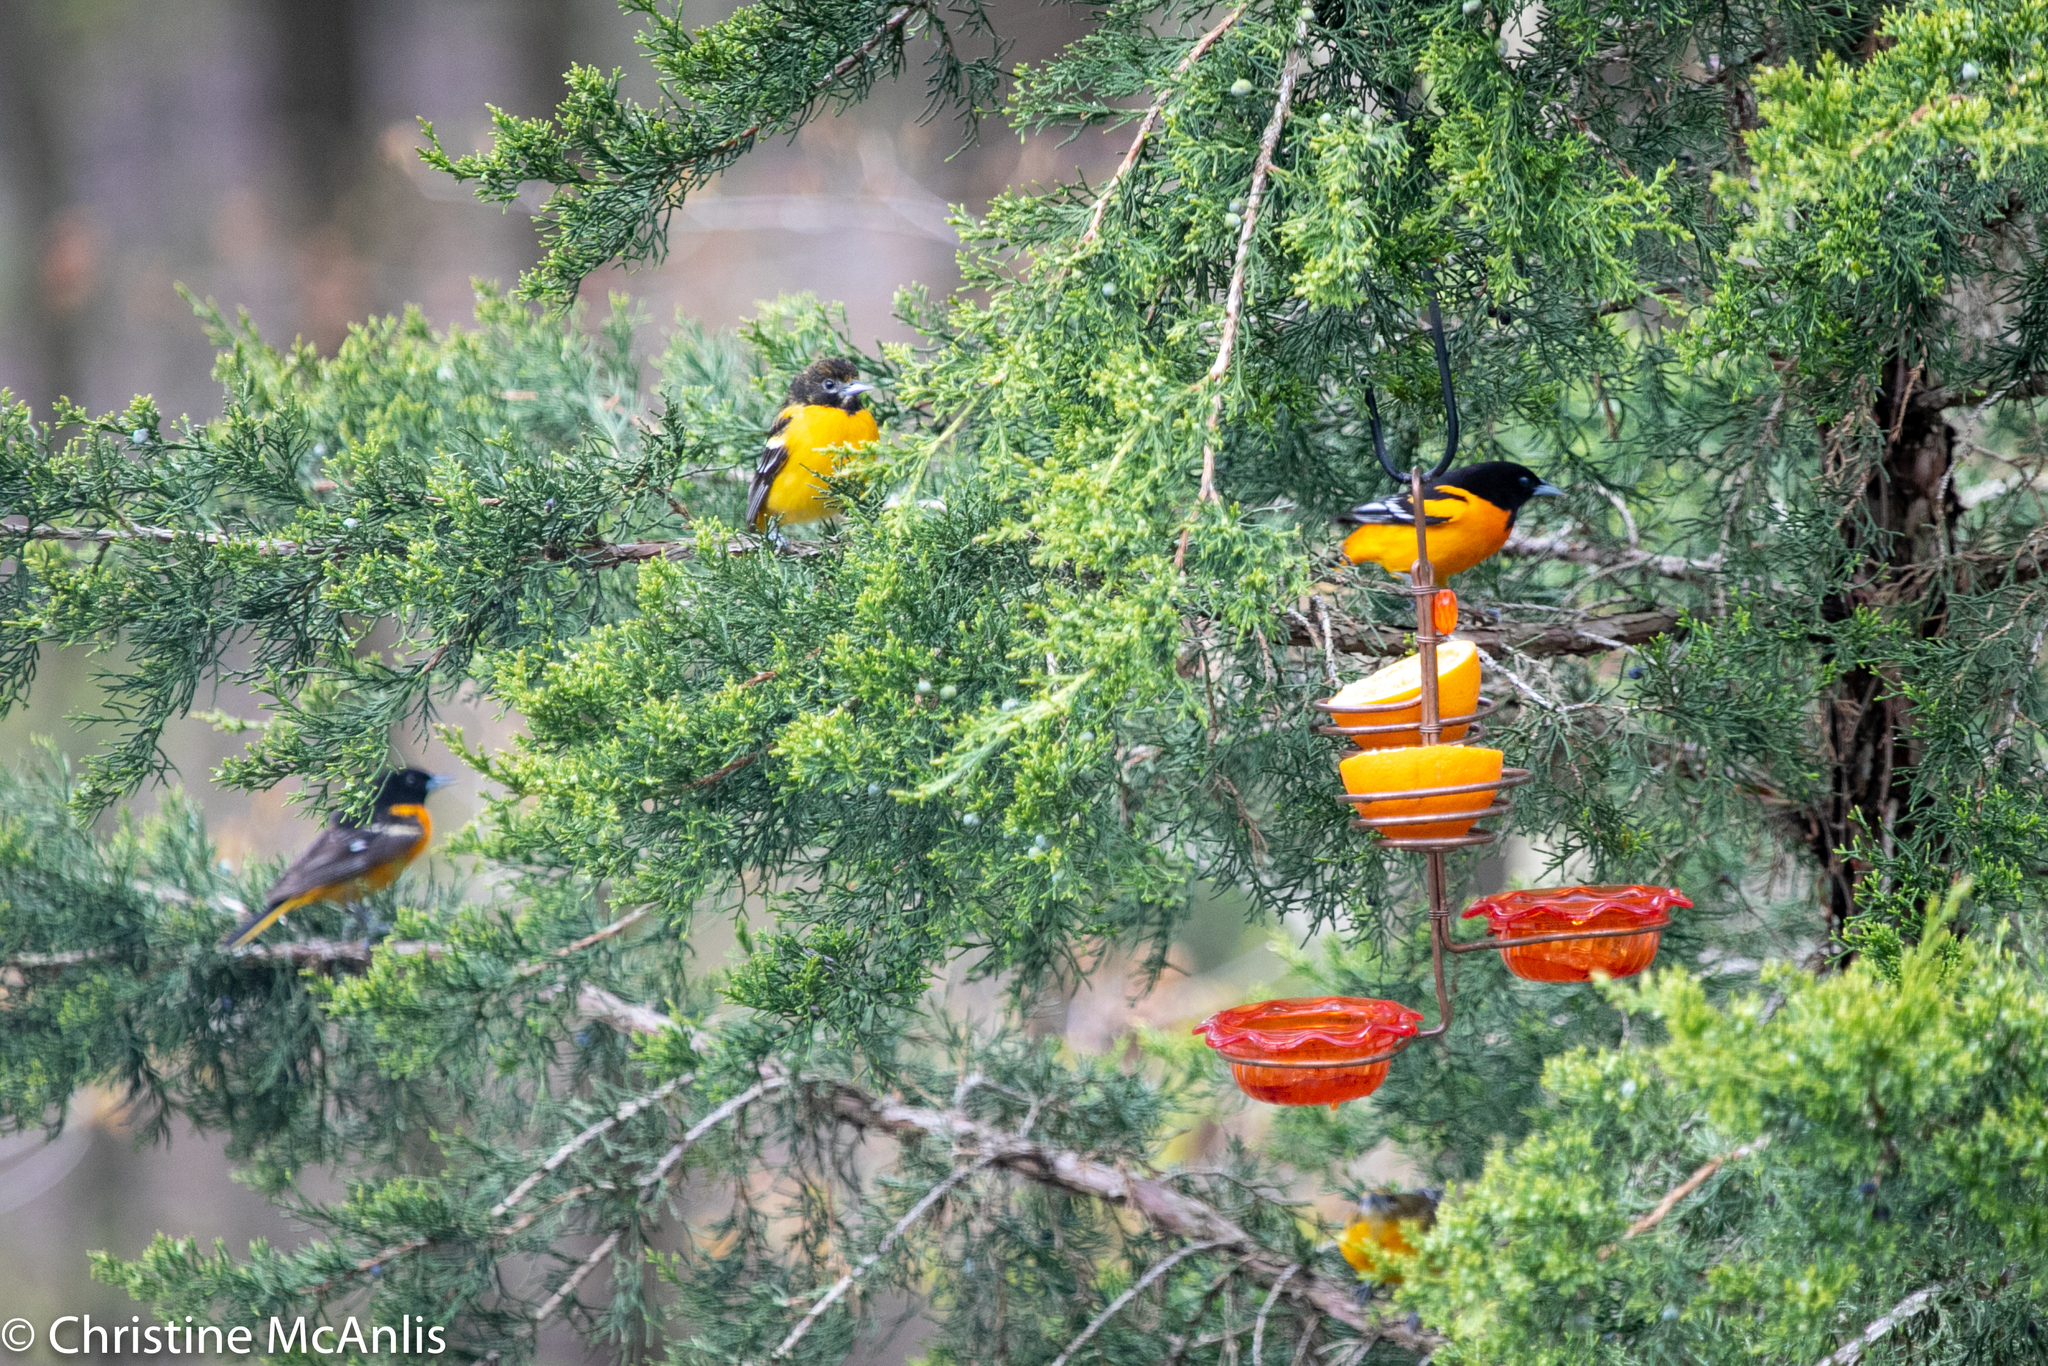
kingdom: Animalia
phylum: Chordata
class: Aves
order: Passeriformes
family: Icteridae
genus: Icterus
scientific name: Icterus galbula
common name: Baltimore oriole
